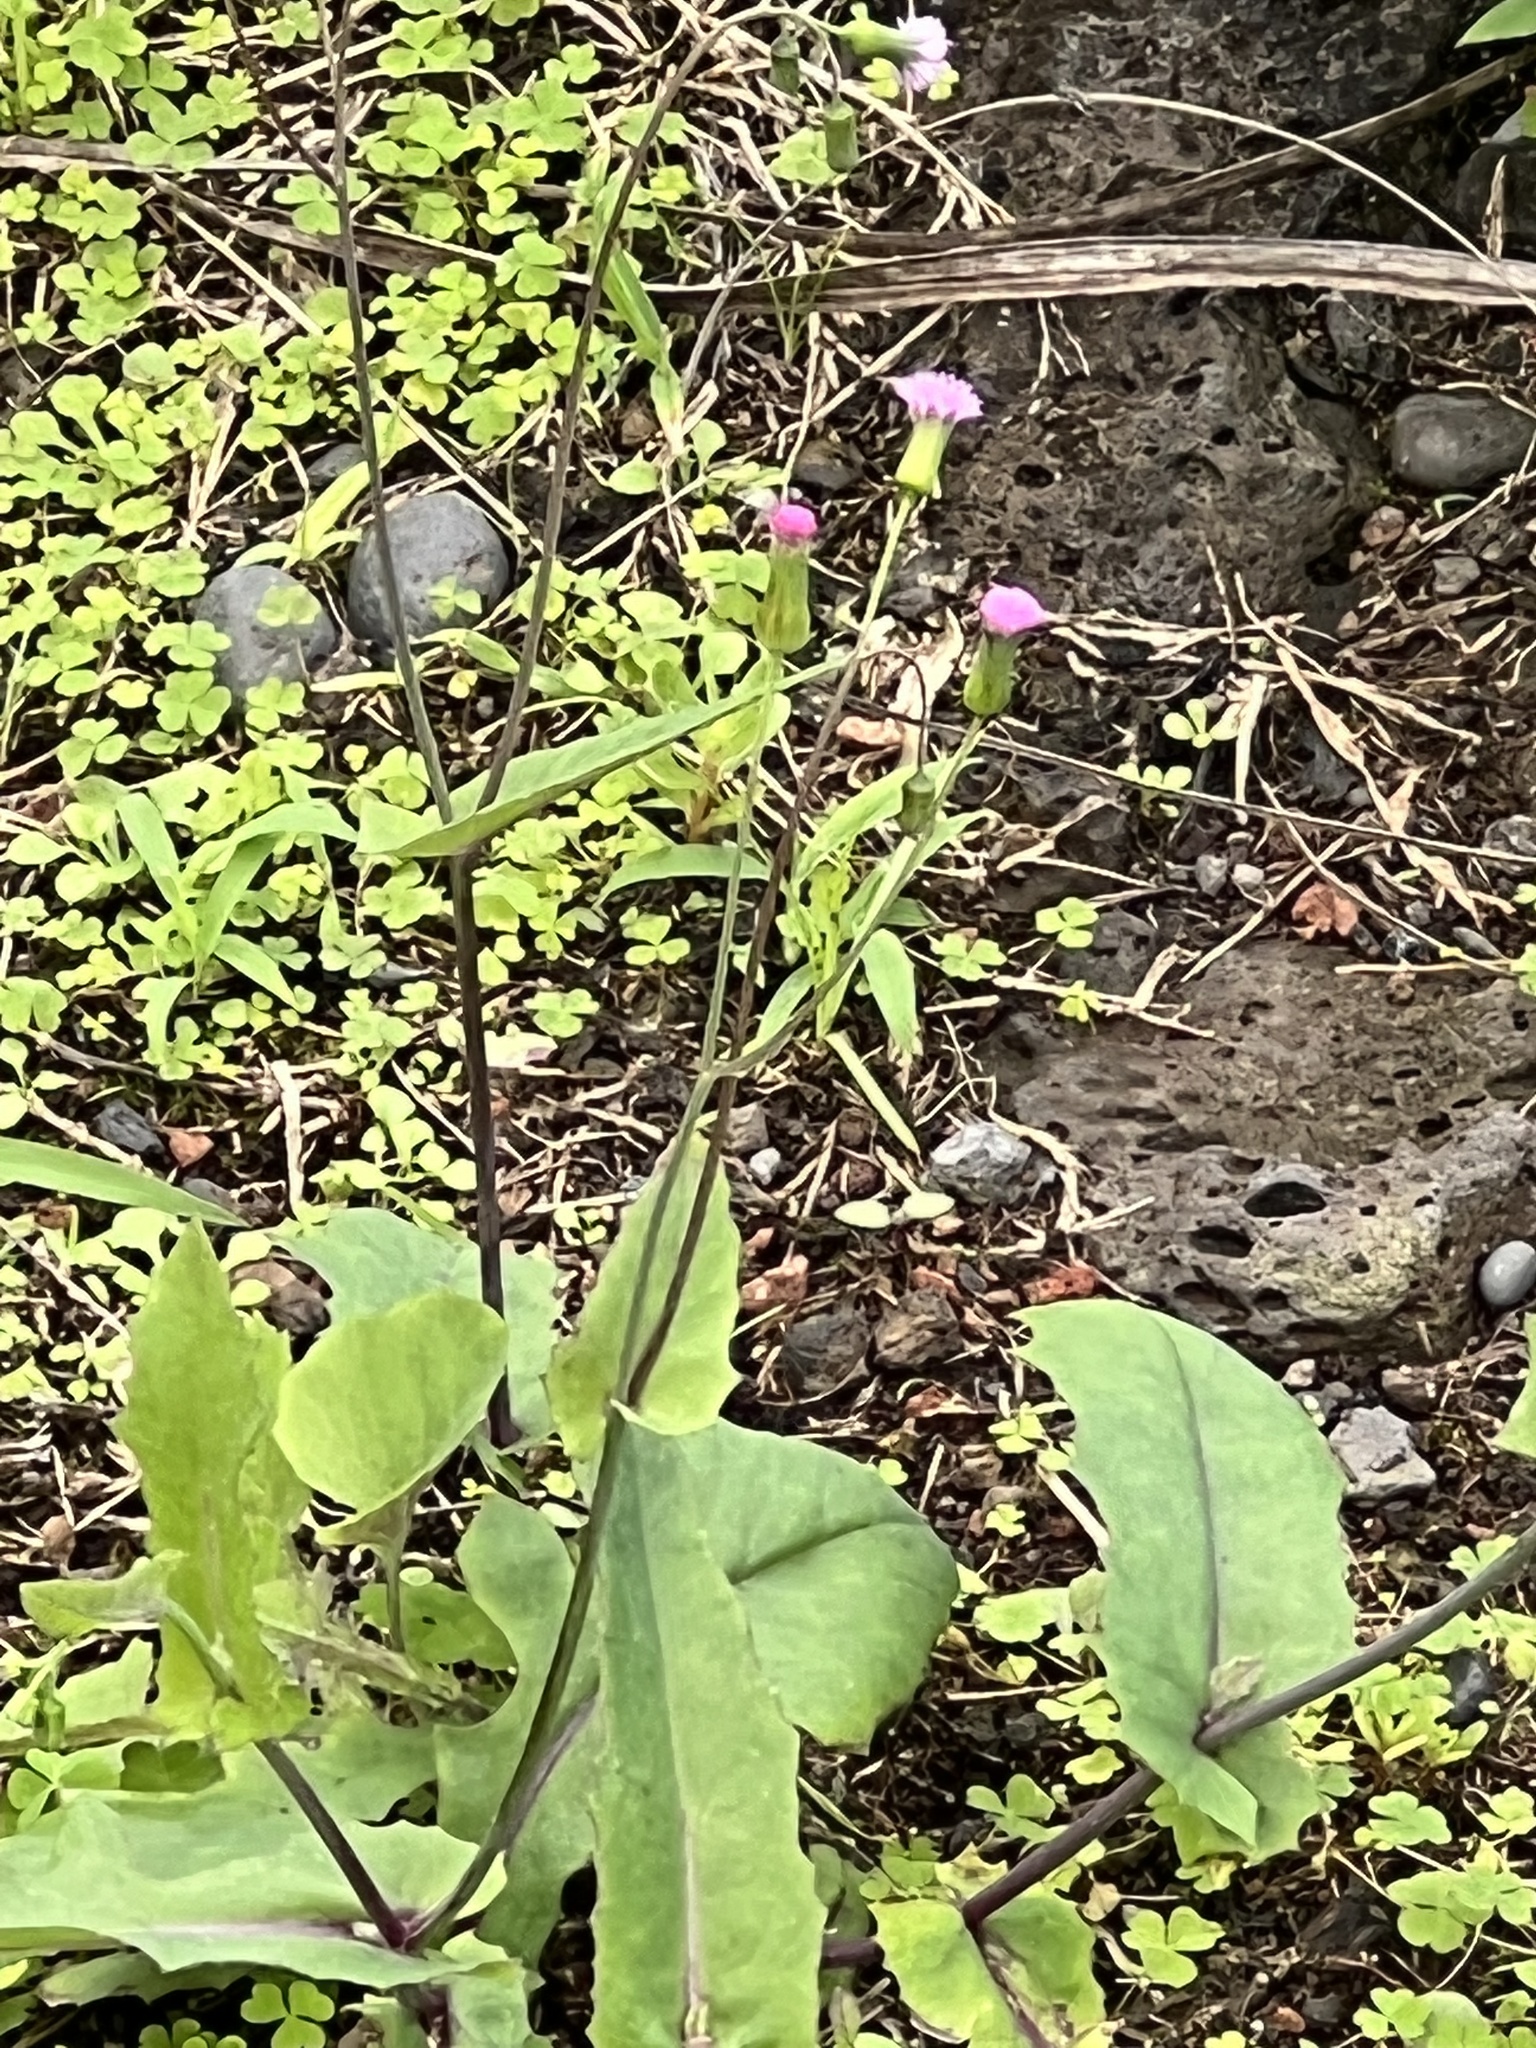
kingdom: Plantae
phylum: Tracheophyta
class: Magnoliopsida
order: Asterales
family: Asteraceae
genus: Emilia
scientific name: Emilia sonchifolia
